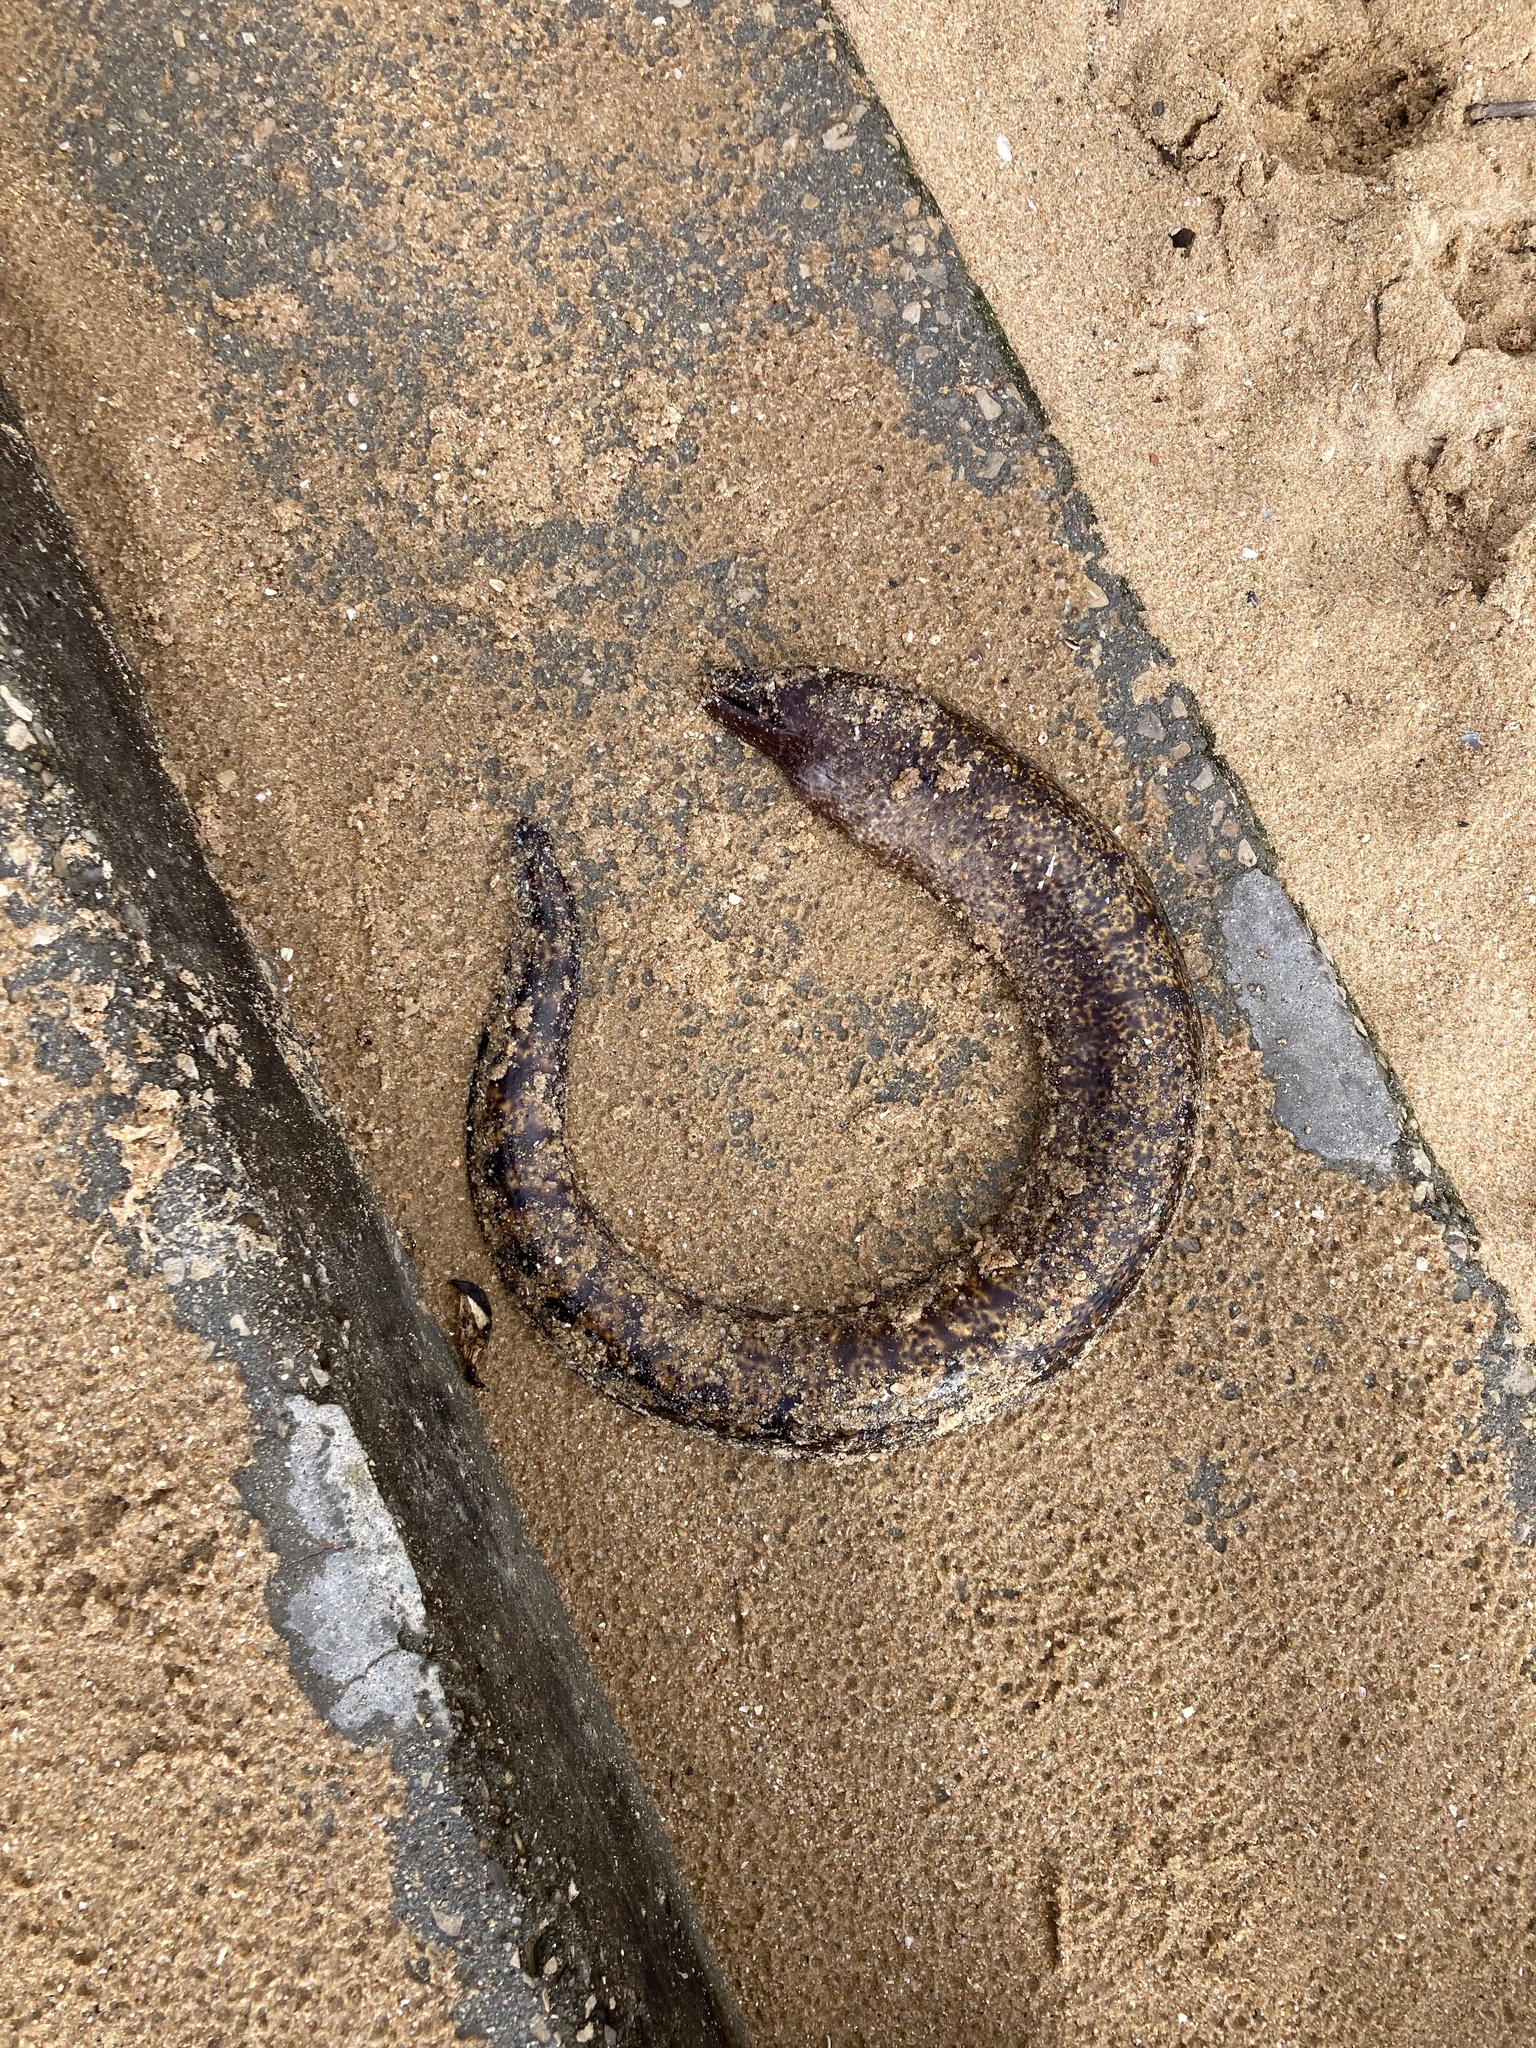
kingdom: Animalia
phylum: Chordata
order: Anguilliformes
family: Muraenidae
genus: Muraena
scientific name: Muraena helena
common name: Mediterranean moray
